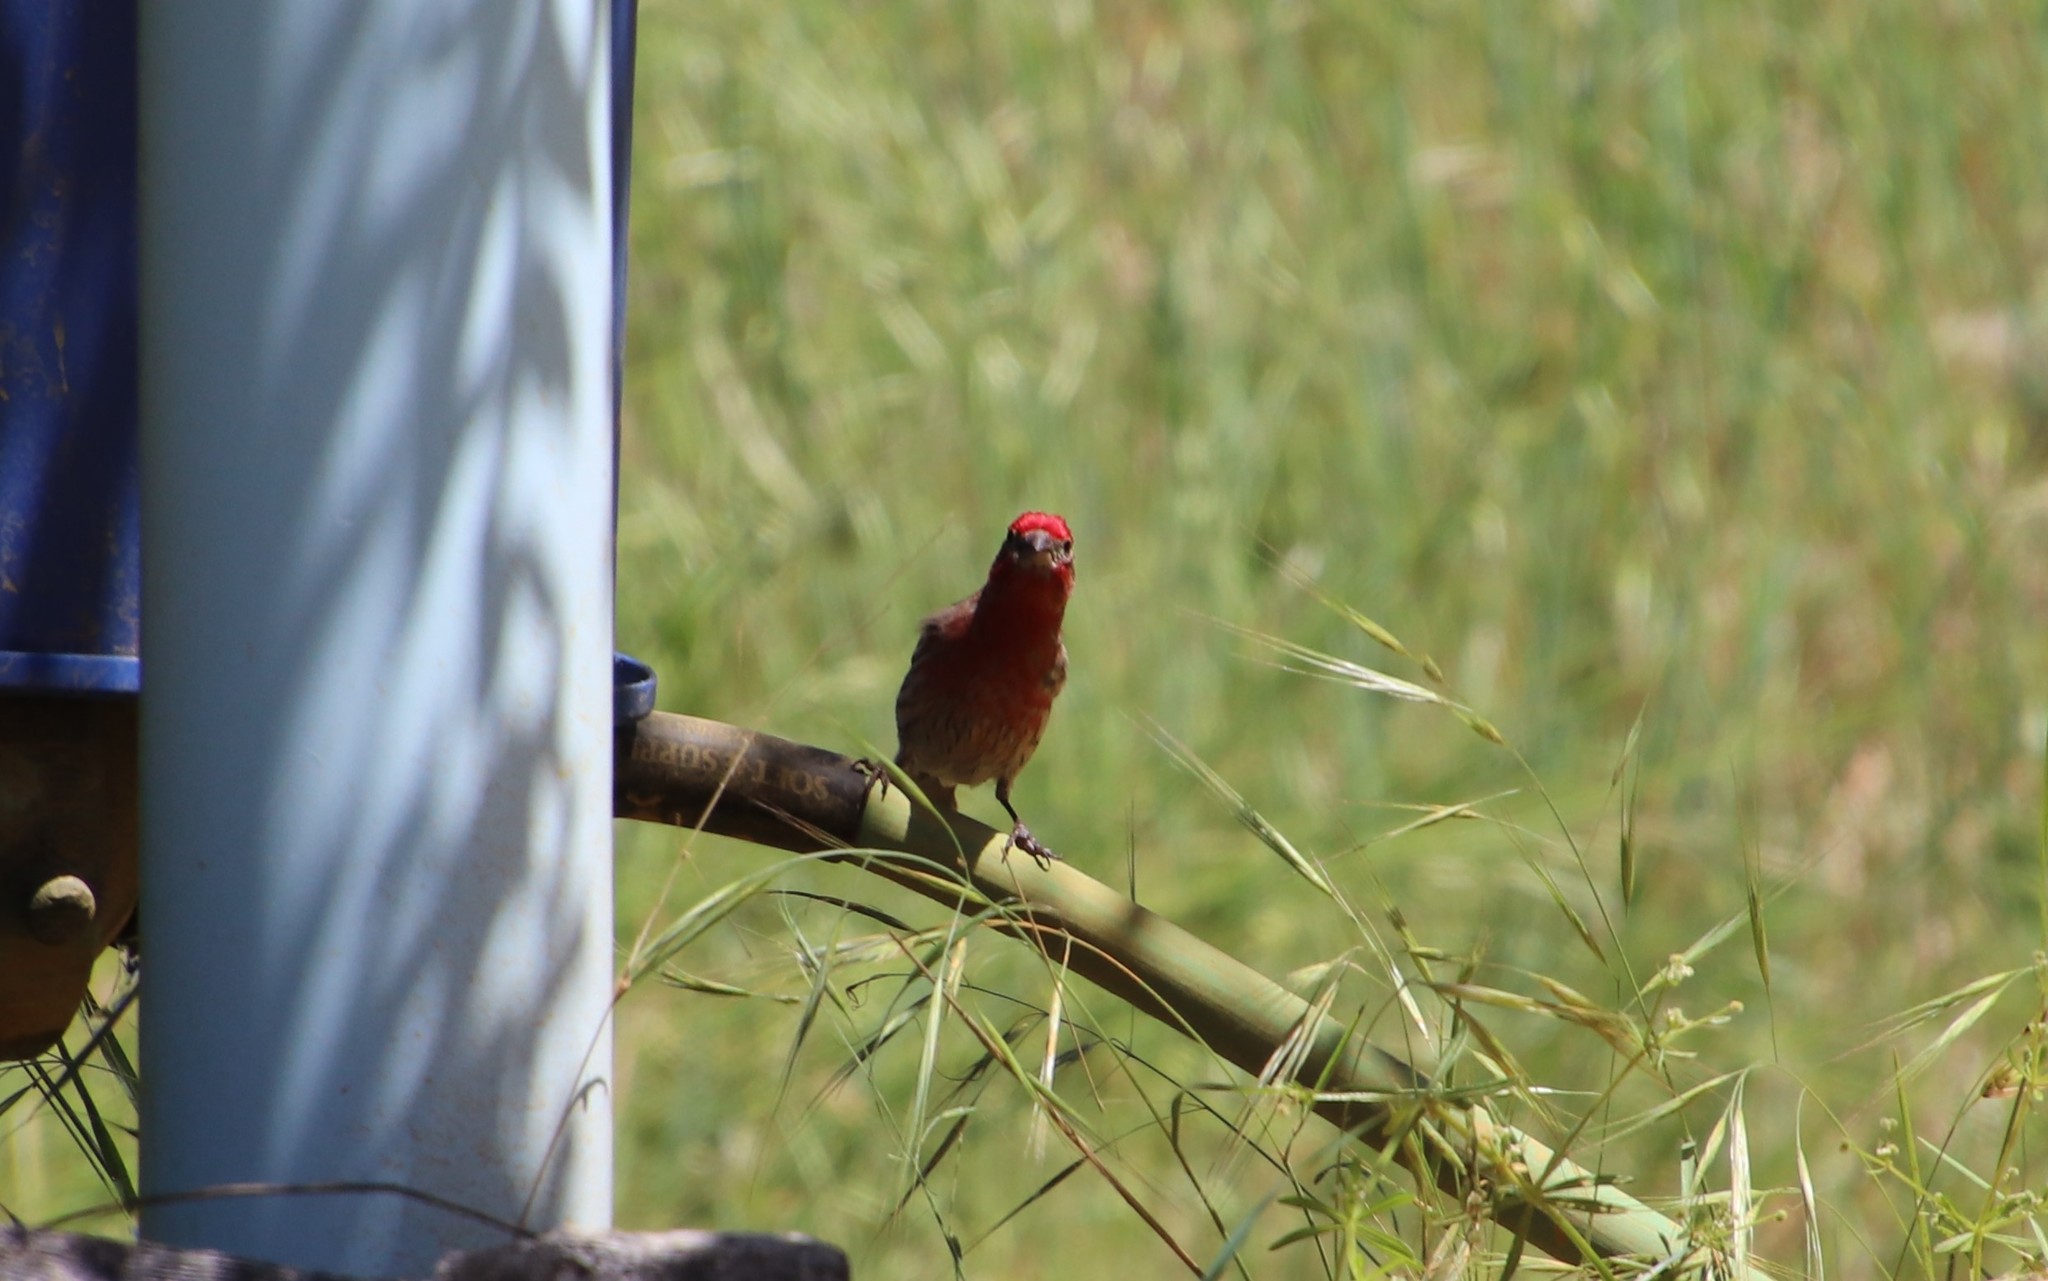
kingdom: Animalia
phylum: Chordata
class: Aves
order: Passeriformes
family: Fringillidae
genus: Haemorhous
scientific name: Haemorhous mexicanus
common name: House finch
